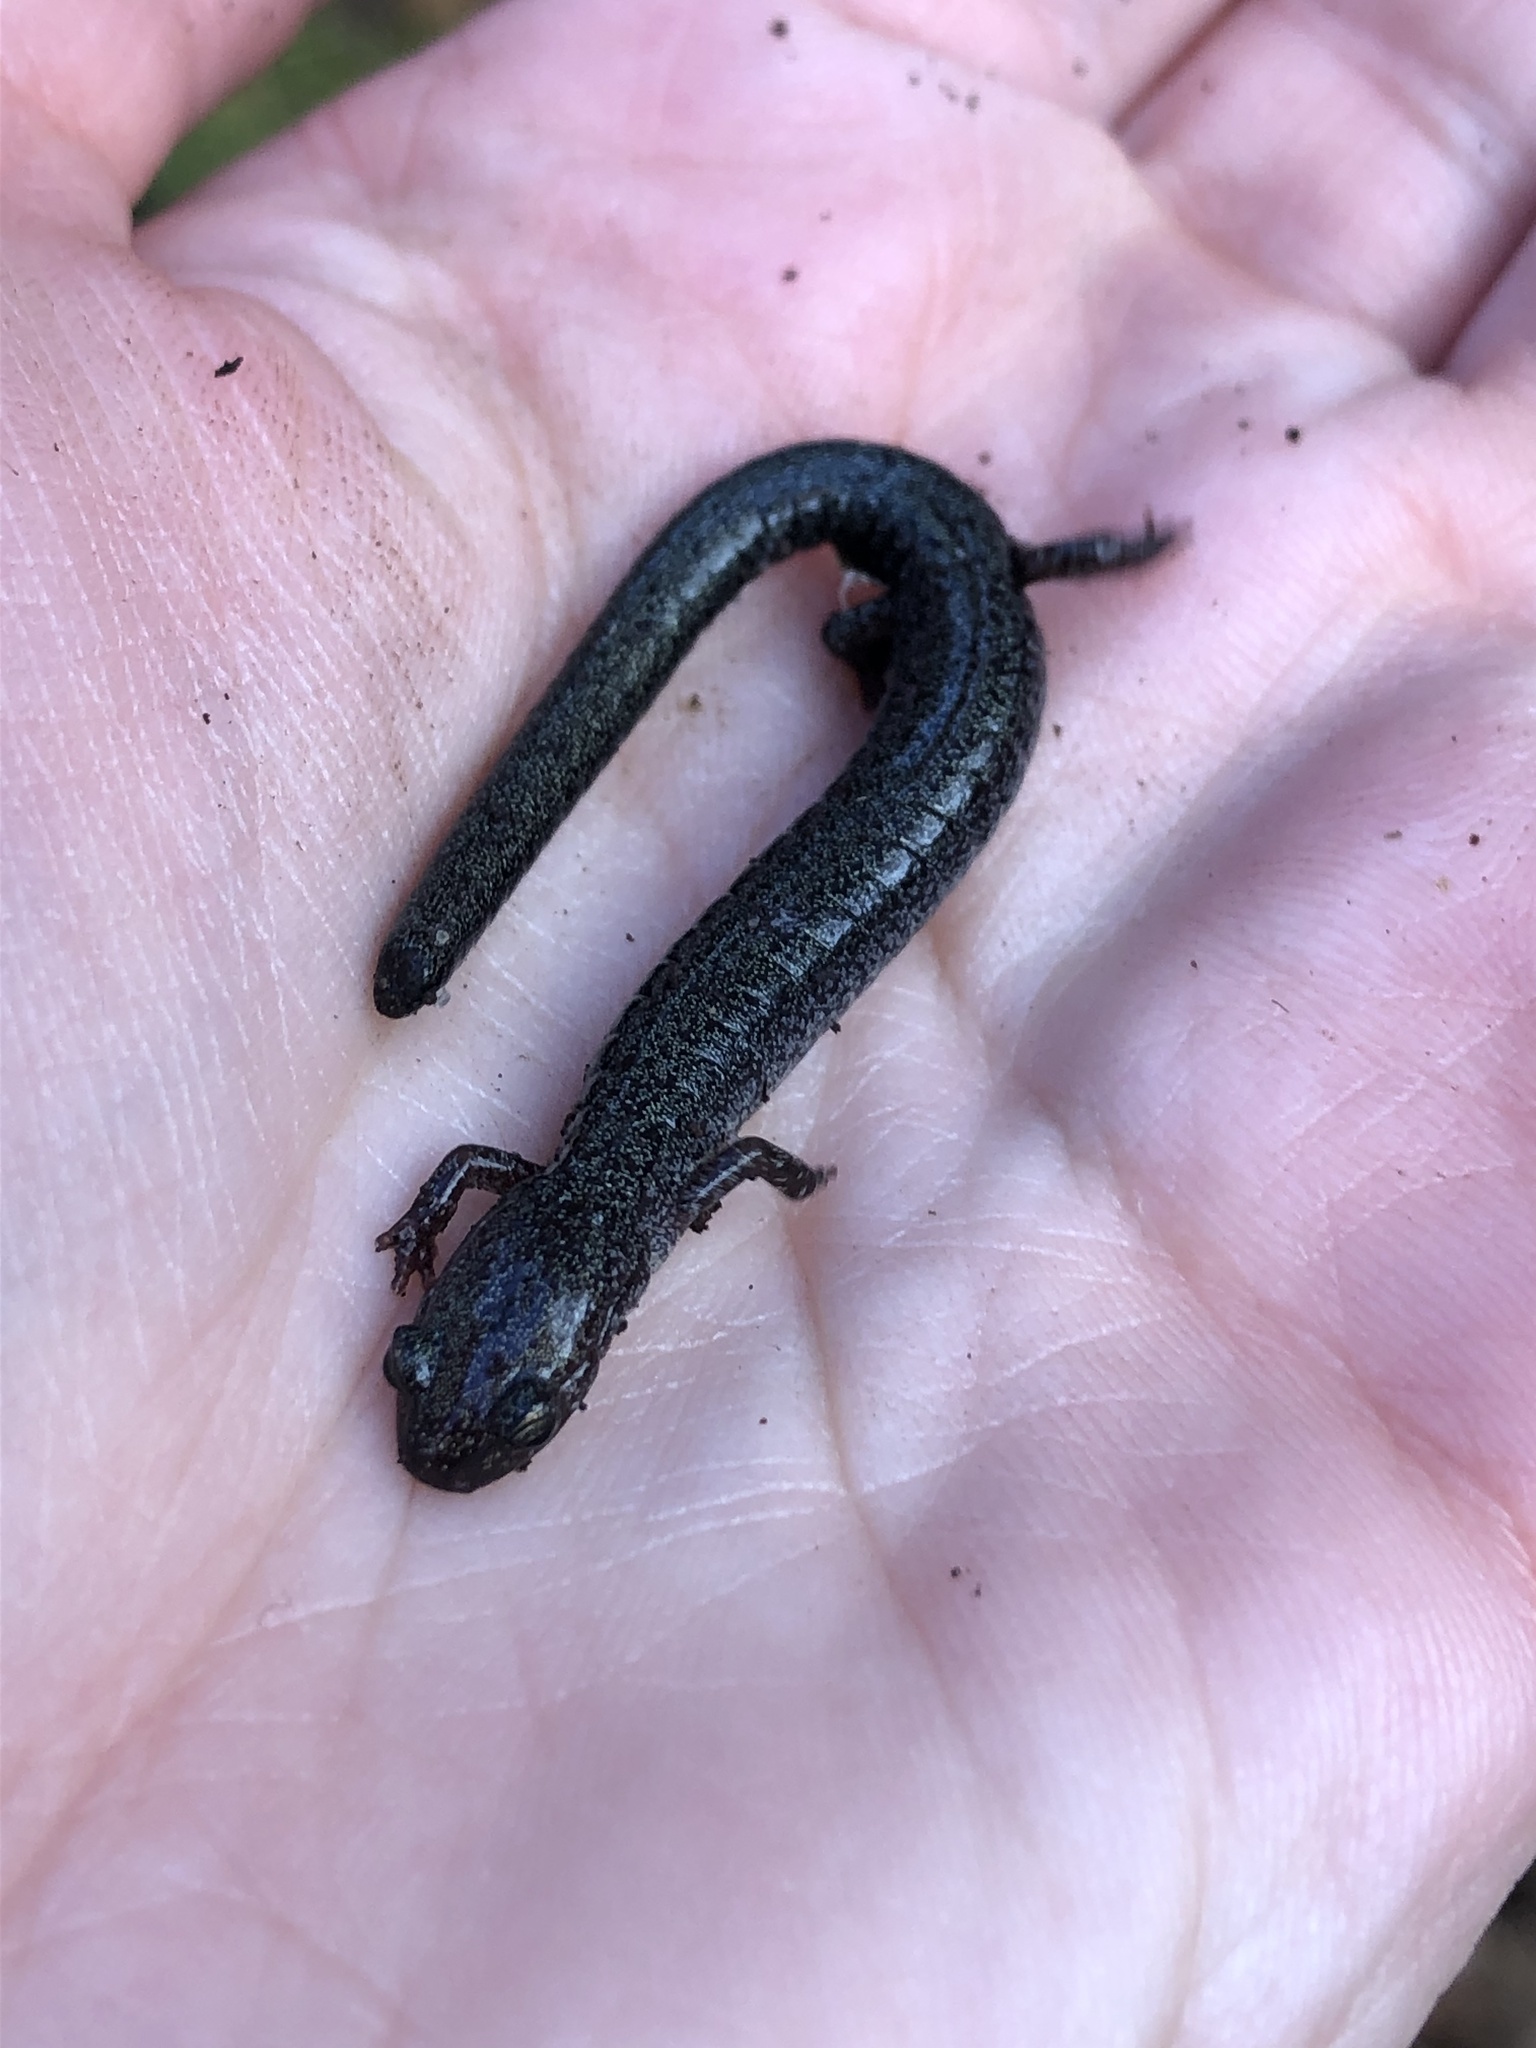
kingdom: Animalia
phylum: Chordata
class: Amphibia
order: Caudata
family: Plethodontidae
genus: Plethodon
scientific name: Plethodon cinereus
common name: Redback salamander
